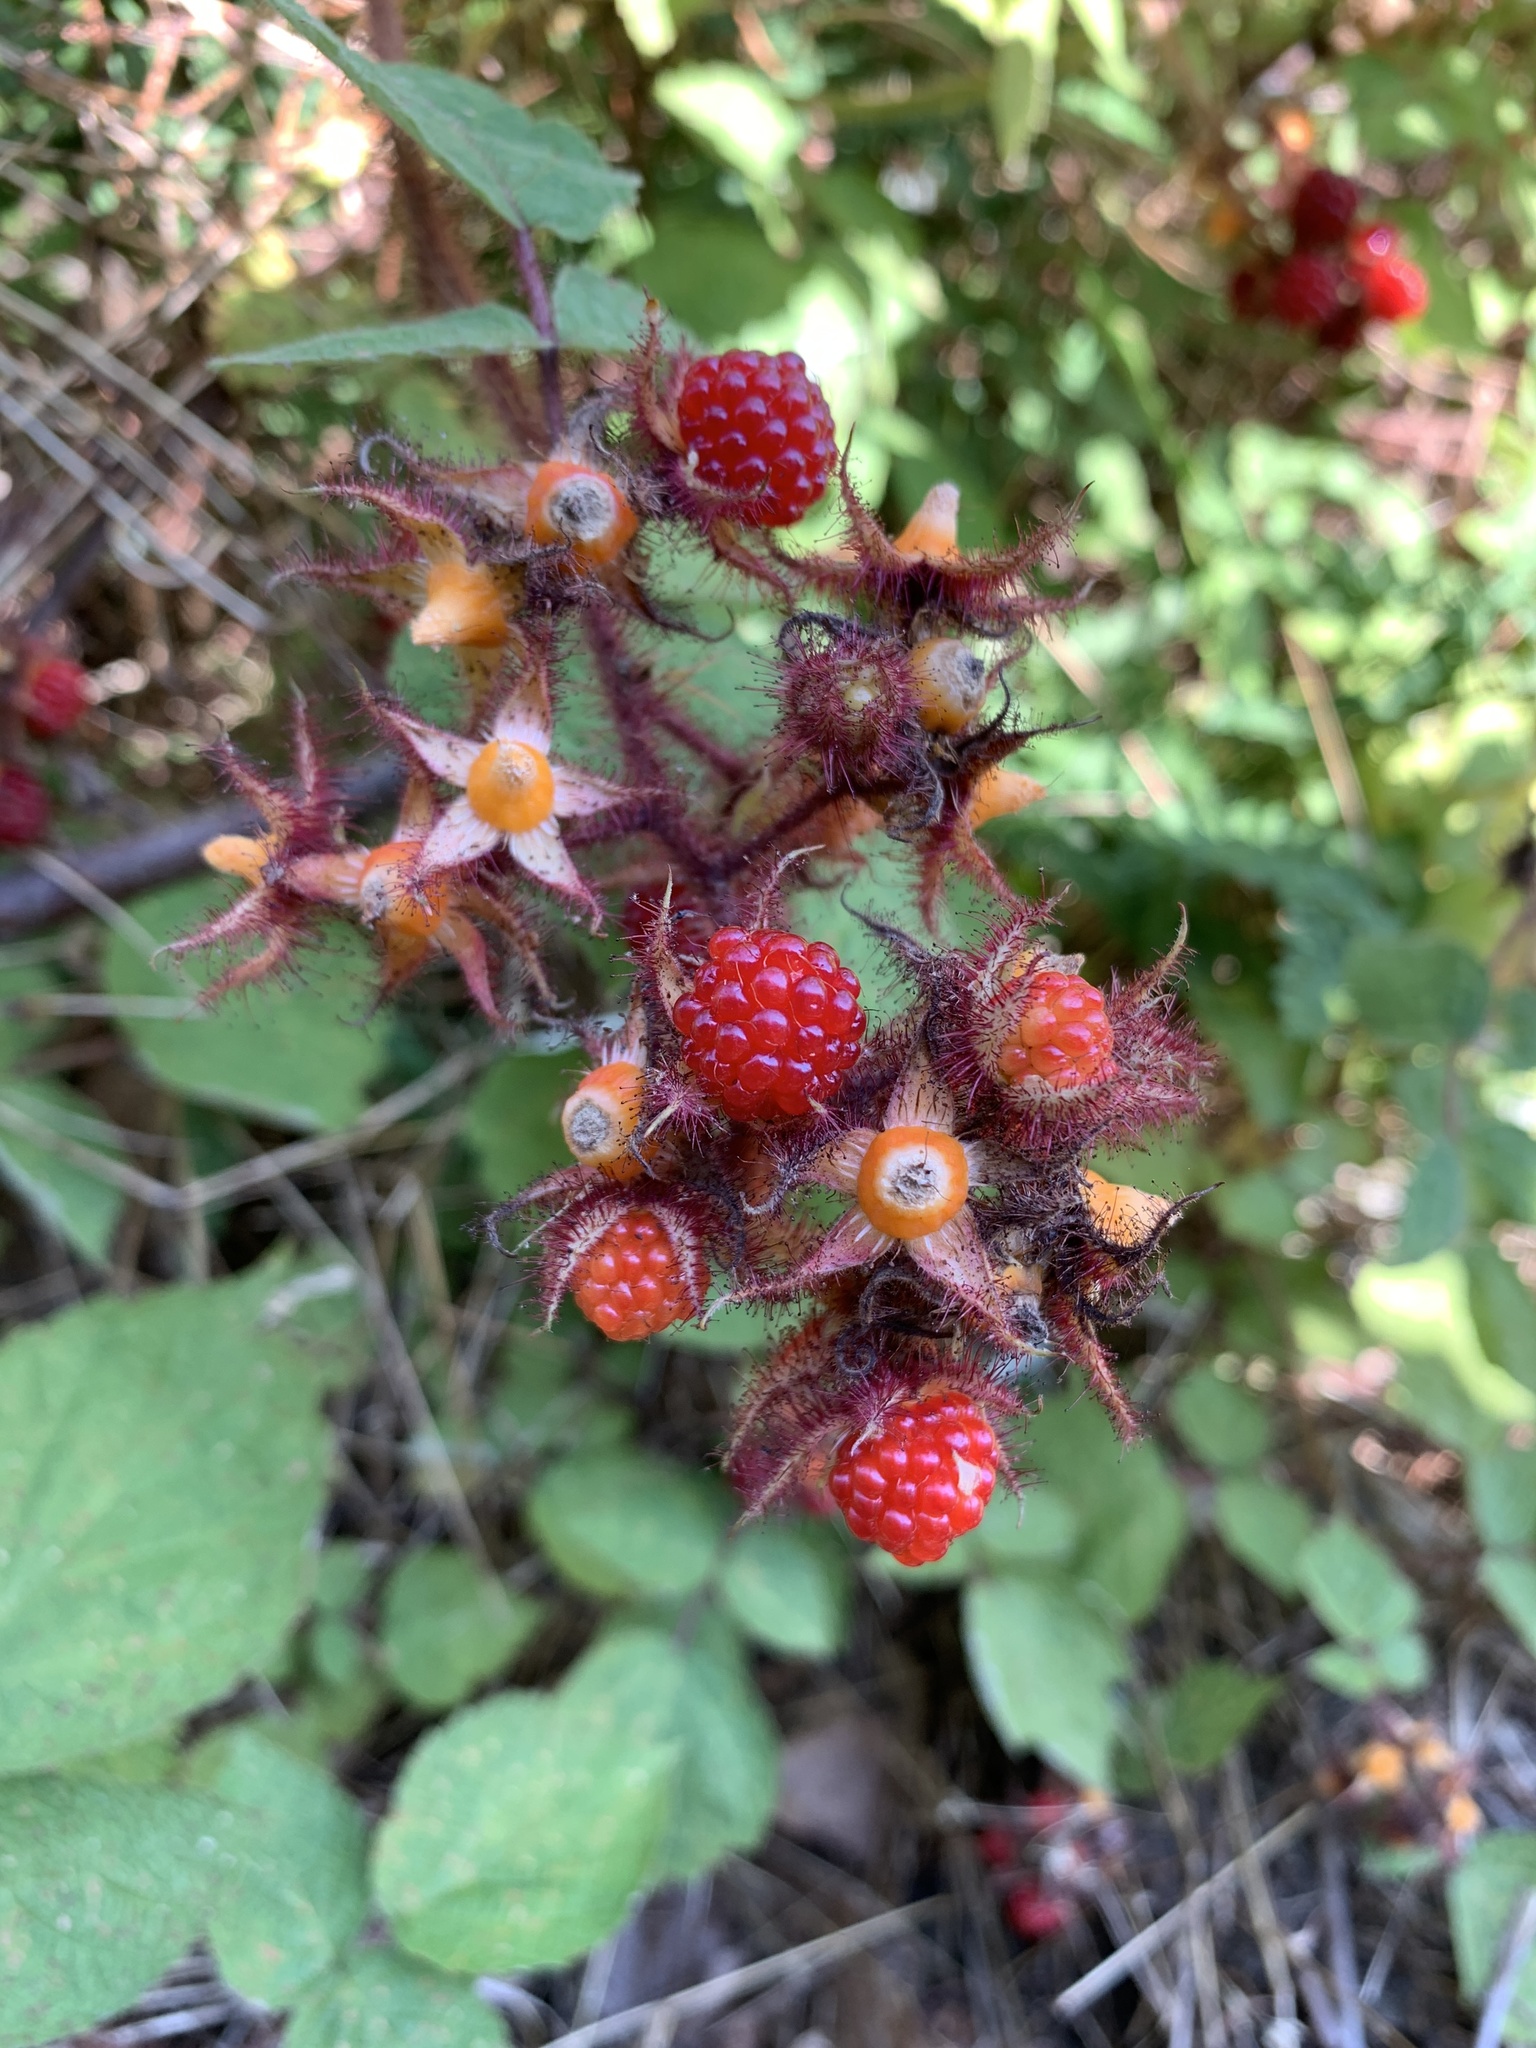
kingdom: Plantae
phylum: Tracheophyta
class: Magnoliopsida
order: Rosales
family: Rosaceae
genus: Rubus
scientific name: Rubus phoenicolasius
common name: Japanese wineberry
